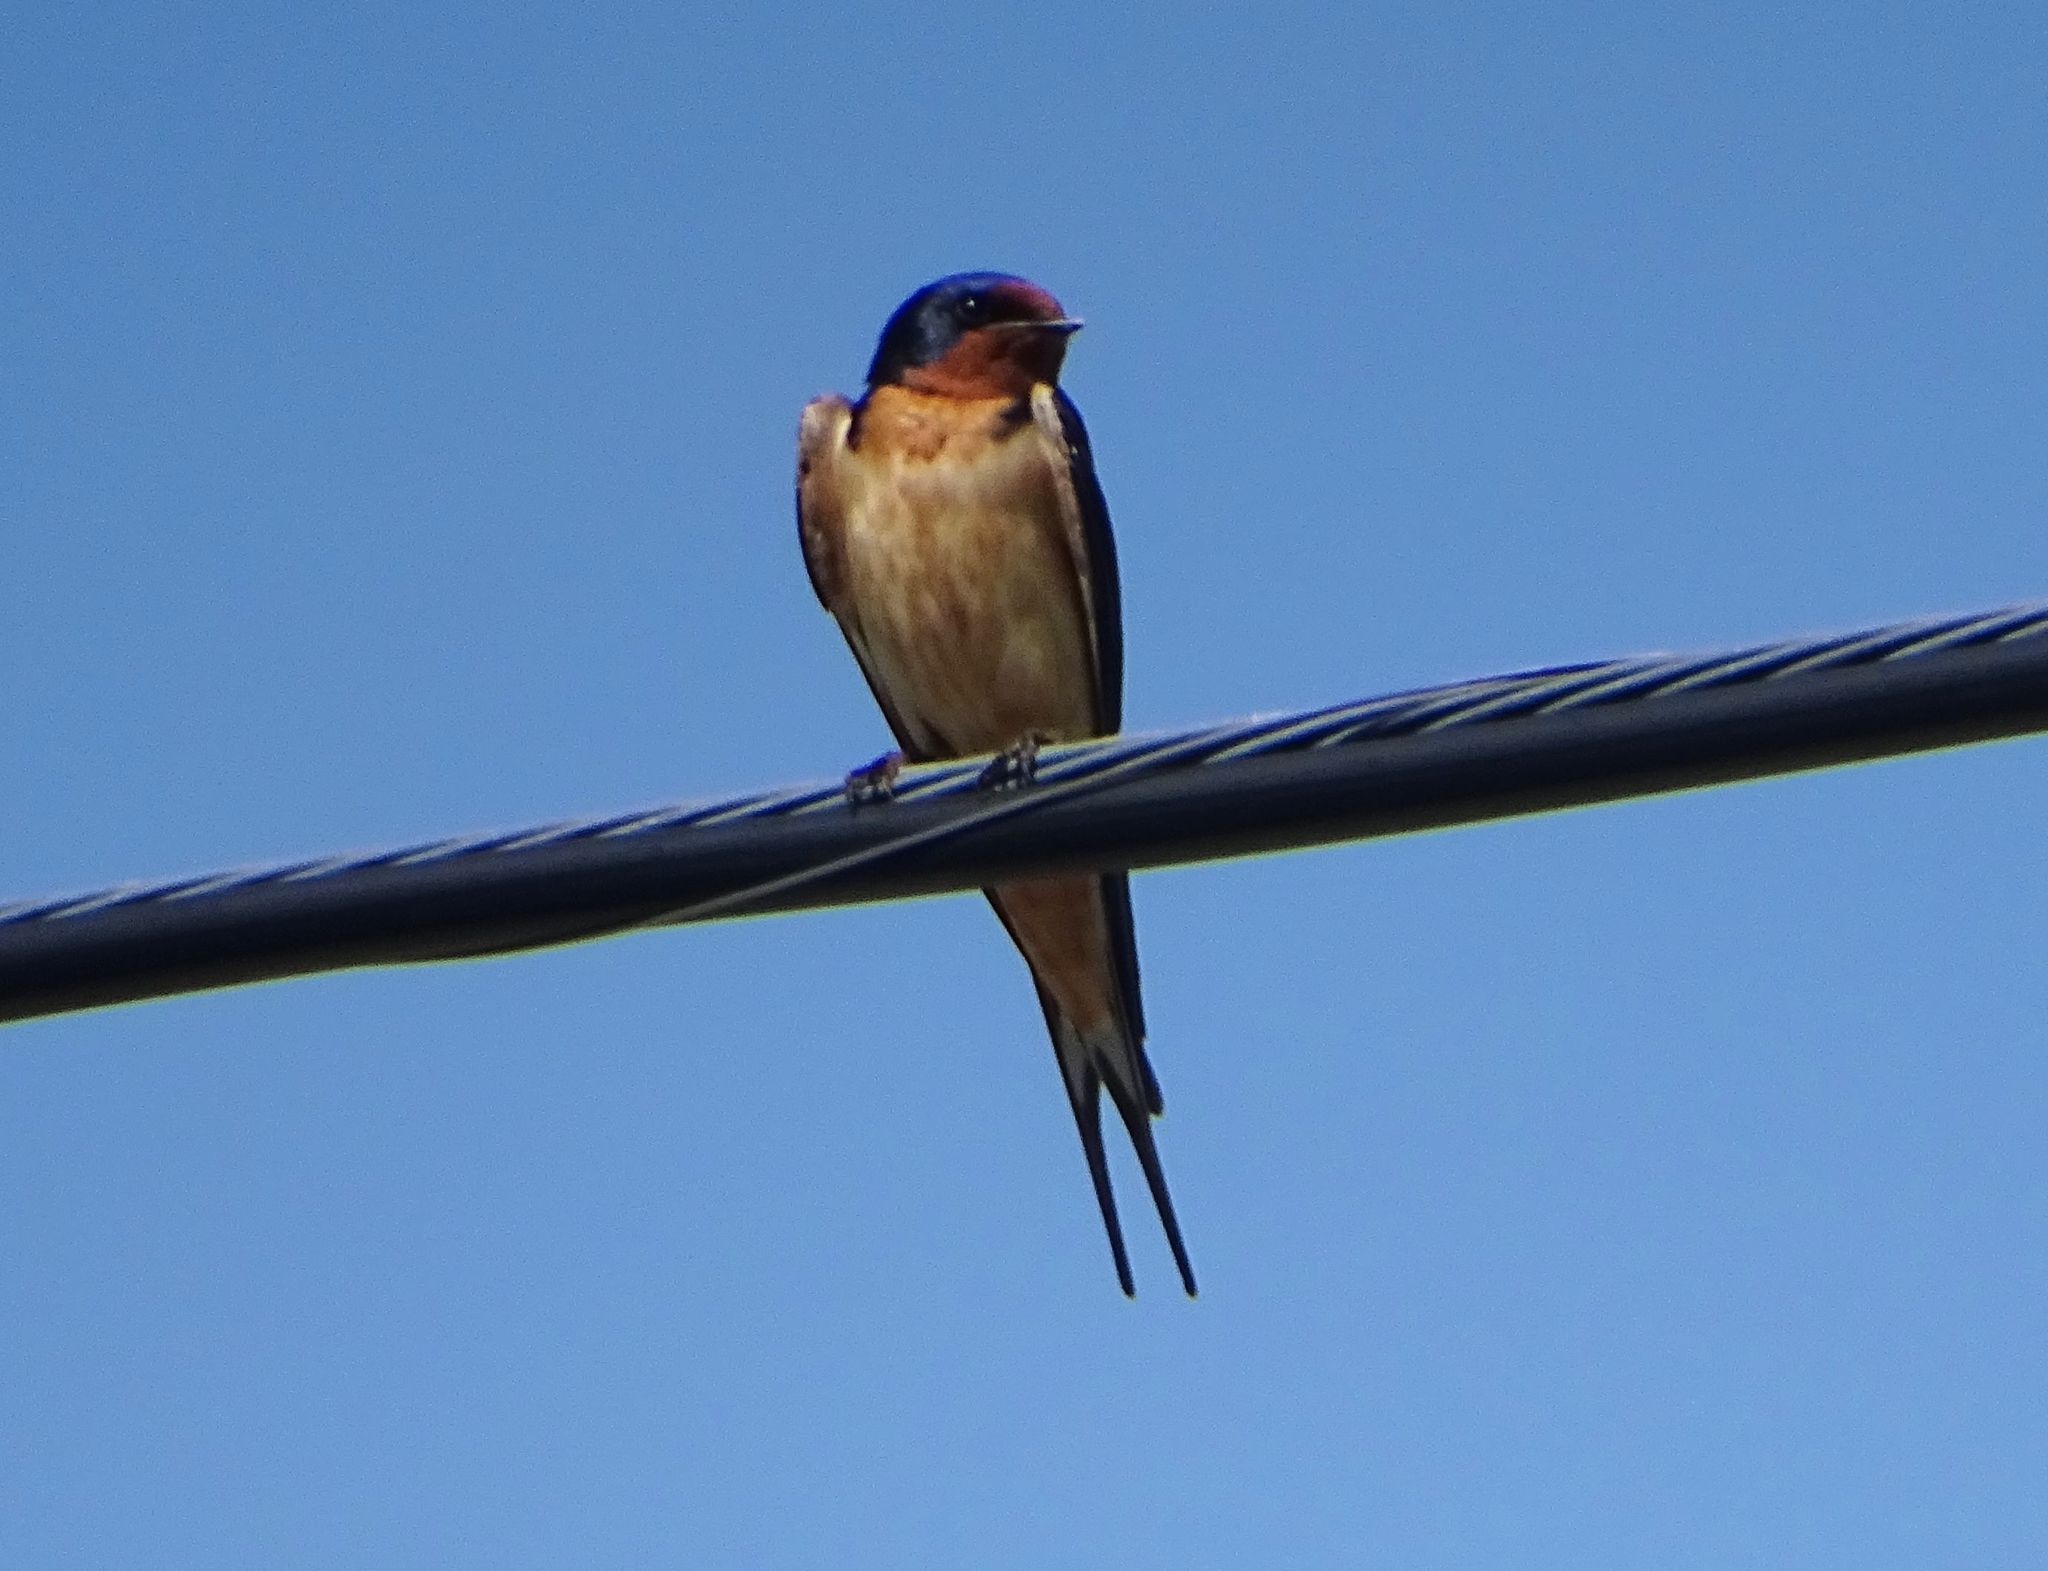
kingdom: Animalia
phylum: Chordata
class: Aves
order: Passeriformes
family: Hirundinidae
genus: Hirundo
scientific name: Hirundo rustica
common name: Barn swallow
